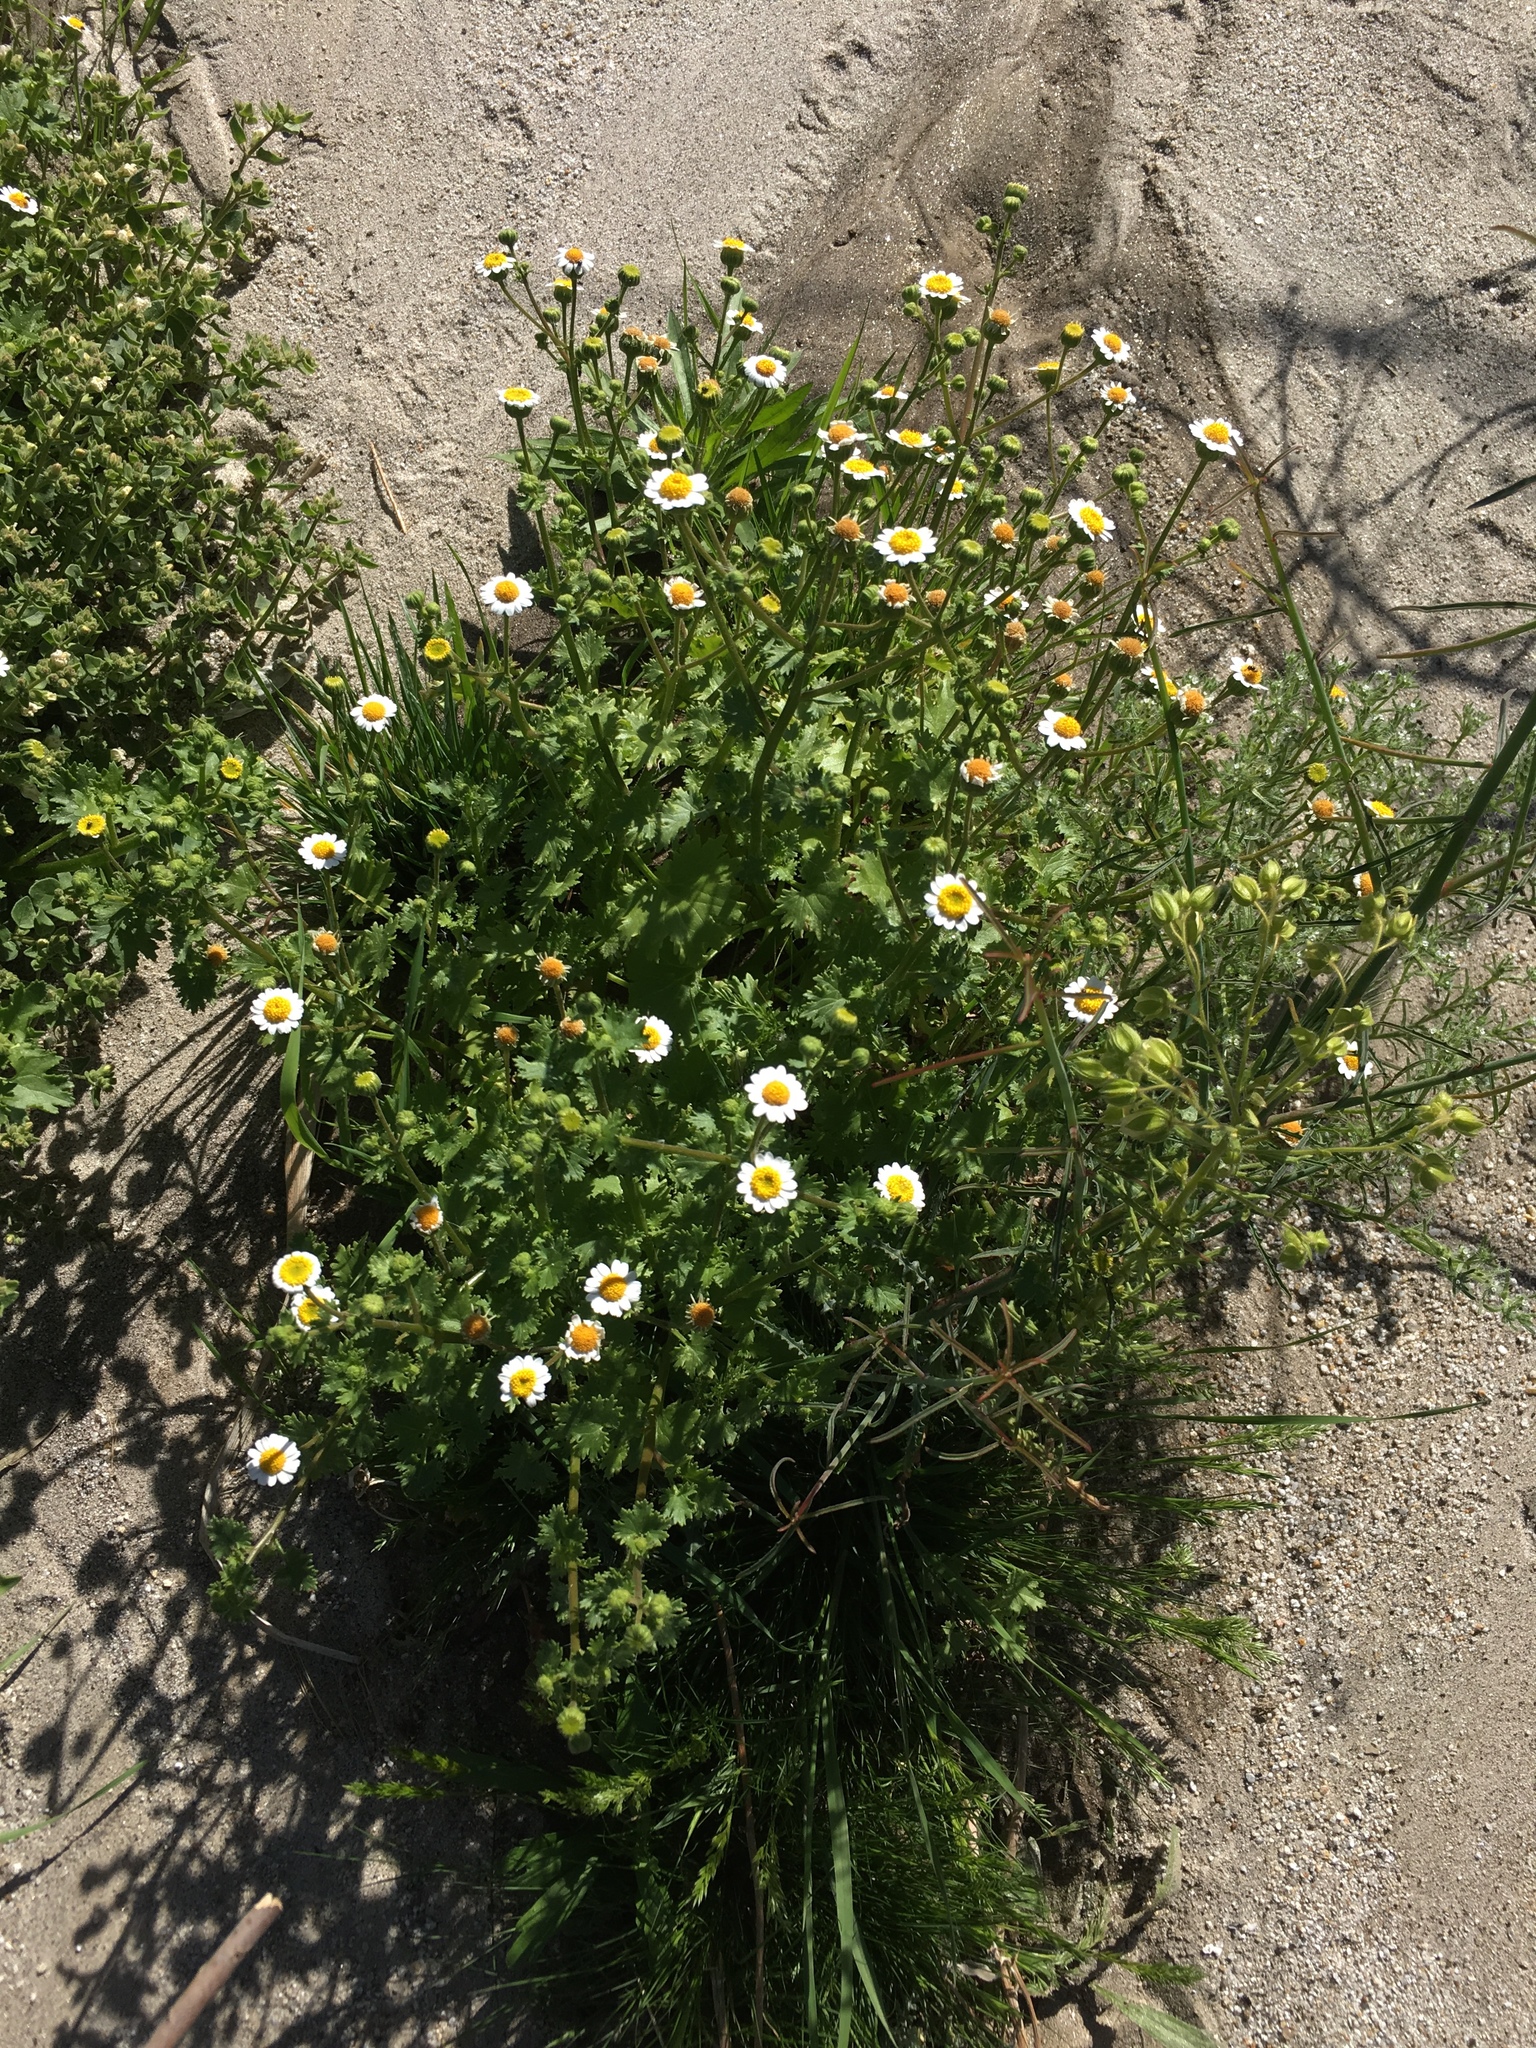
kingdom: Plantae
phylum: Tracheophyta
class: Magnoliopsida
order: Asterales
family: Asteraceae
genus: Laphamia
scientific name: Laphamia emoryi
